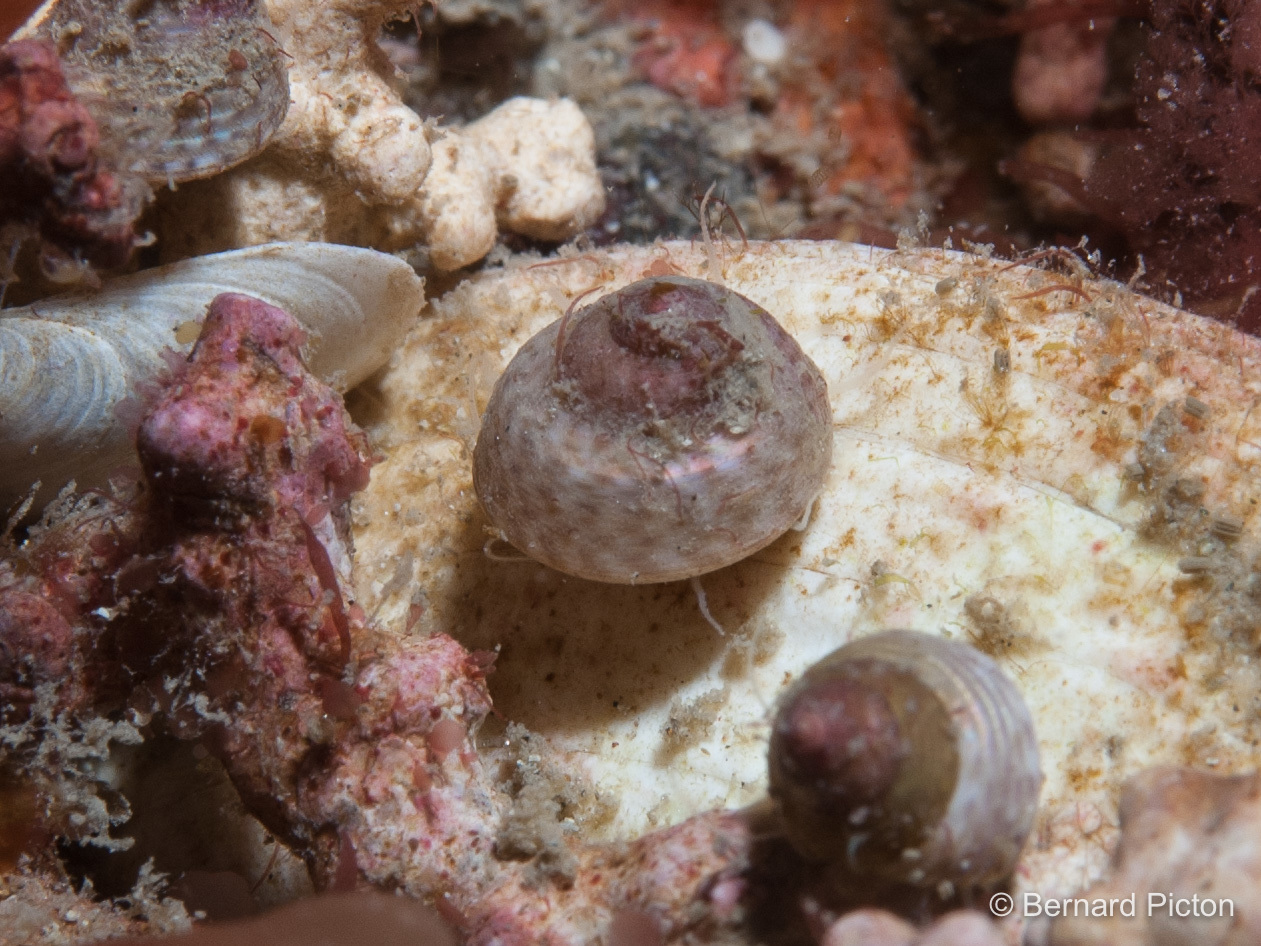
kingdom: Animalia
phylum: Mollusca
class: Gastropoda
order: Trochida
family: Trochidae
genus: Steromphala
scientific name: Steromphala tumida
